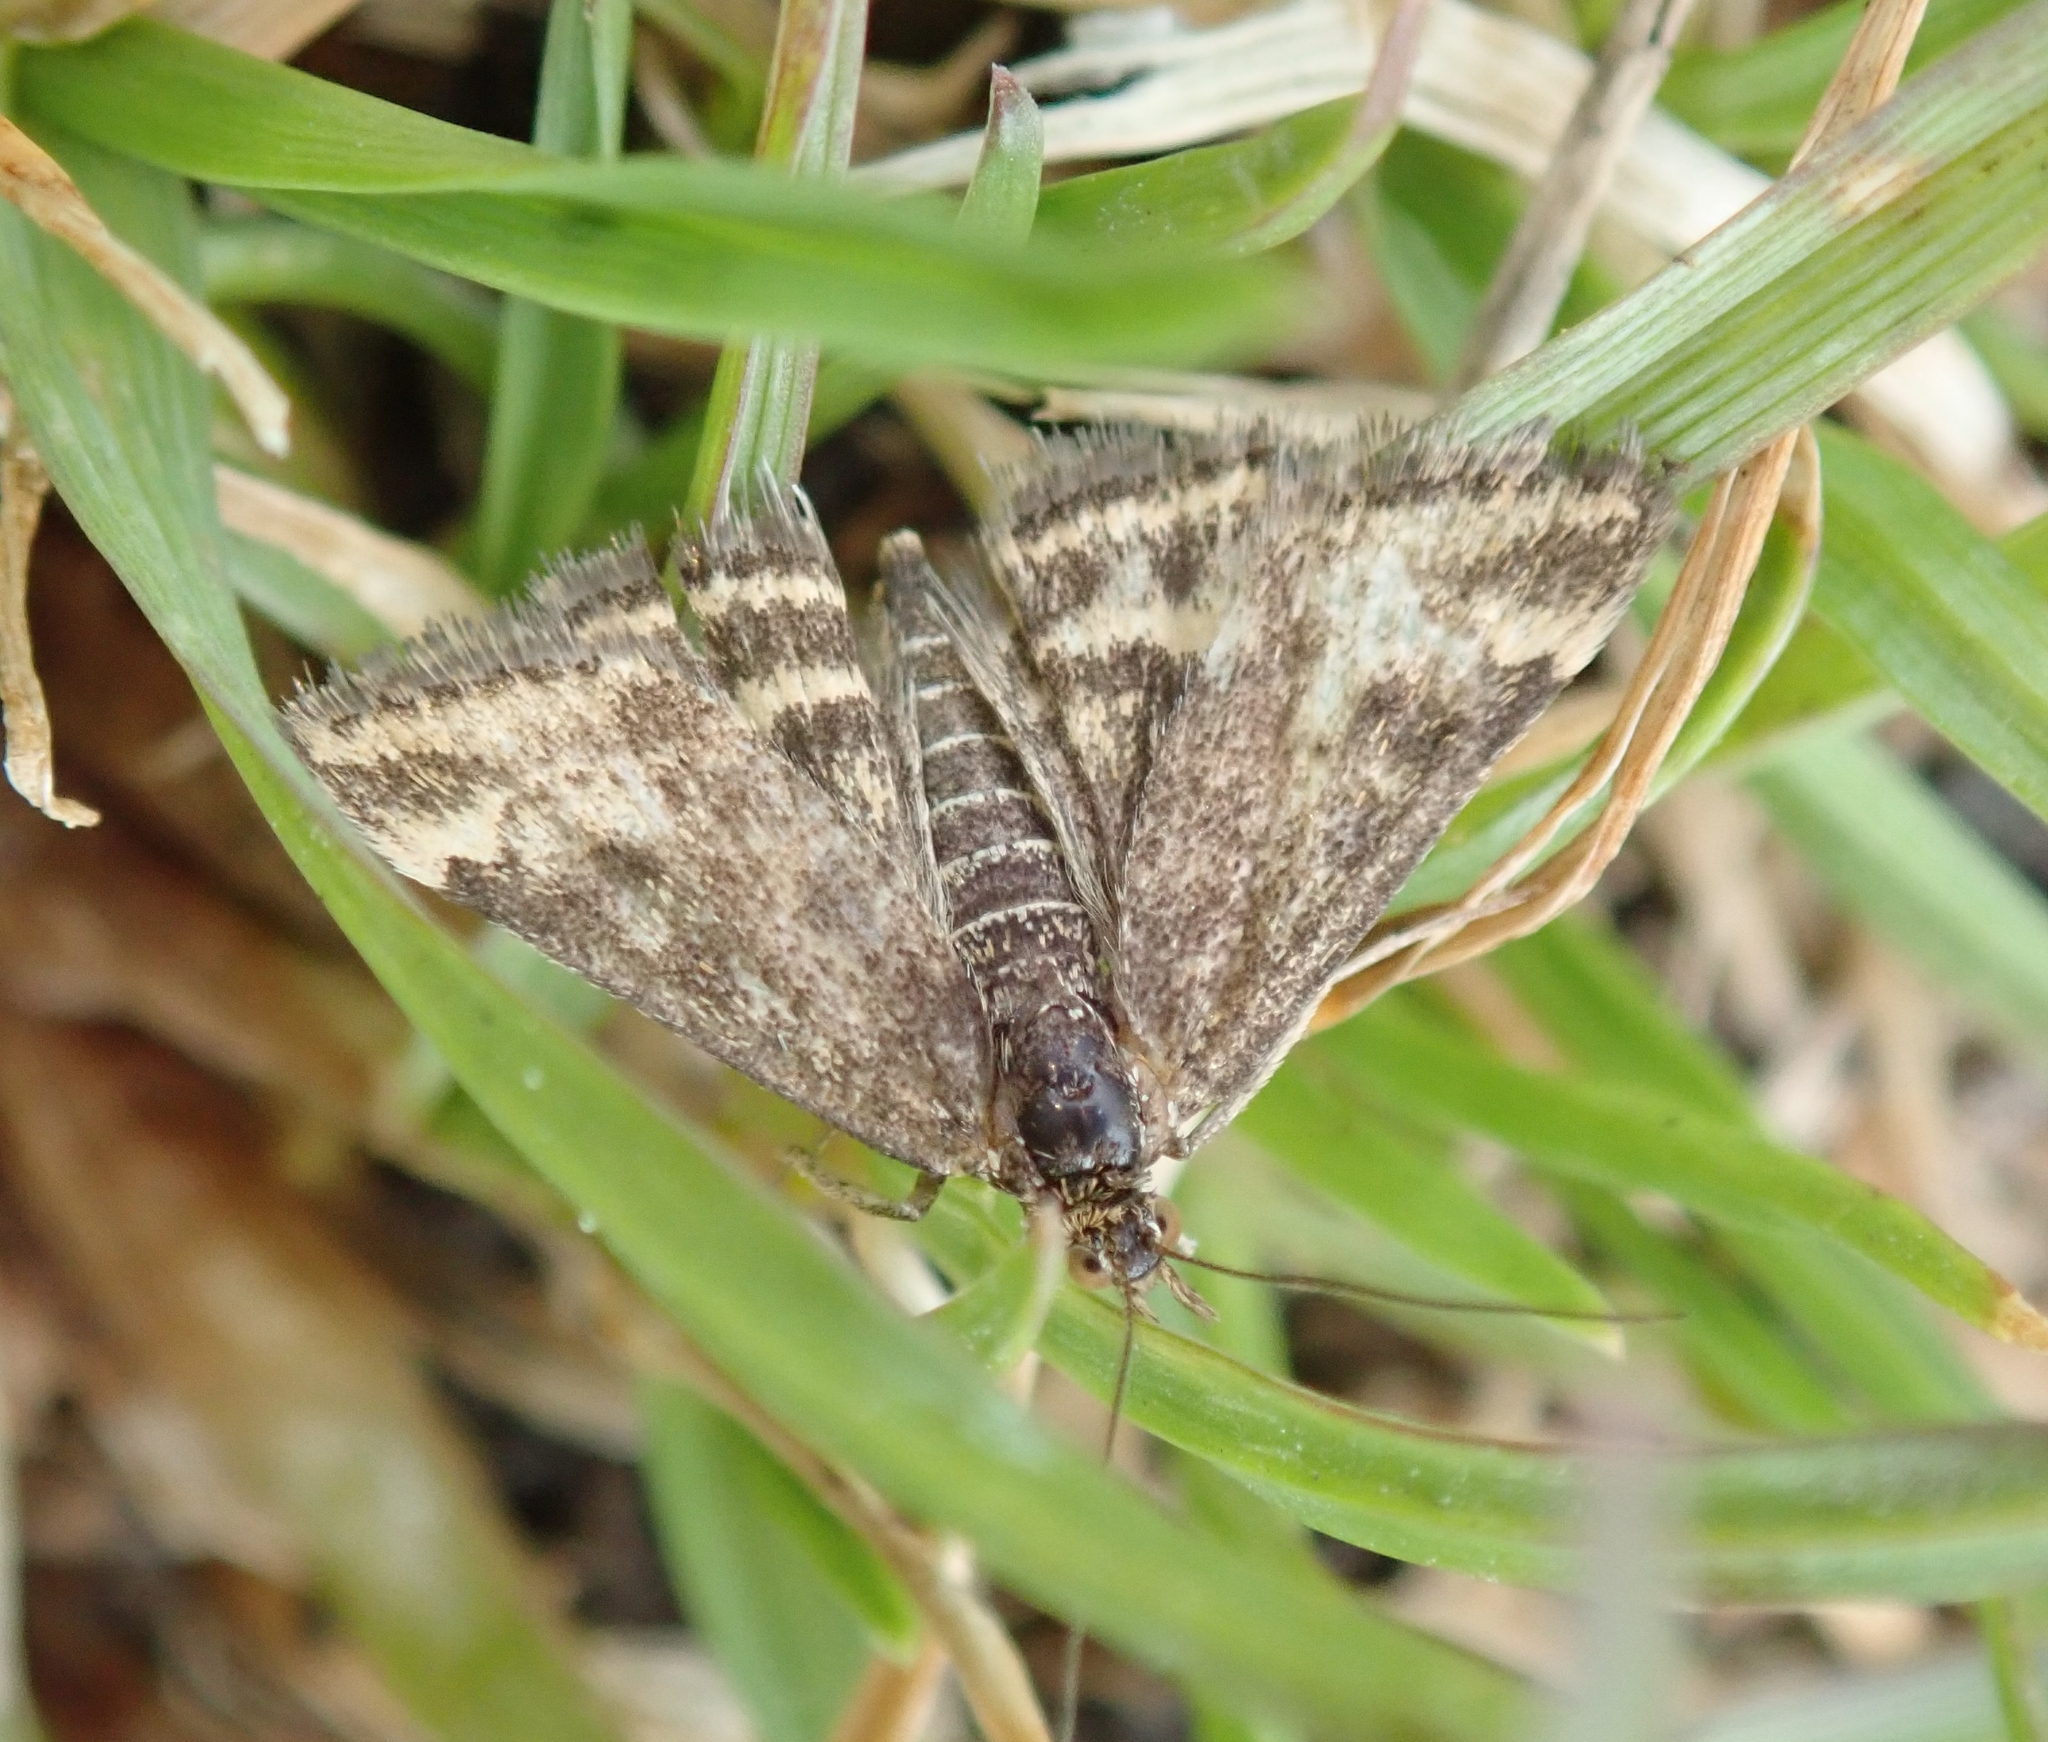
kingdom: Animalia
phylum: Arthropoda
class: Insecta
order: Lepidoptera
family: Crambidae
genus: Pyrausta
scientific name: Pyrausta despicata
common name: Straw-barred pearl
